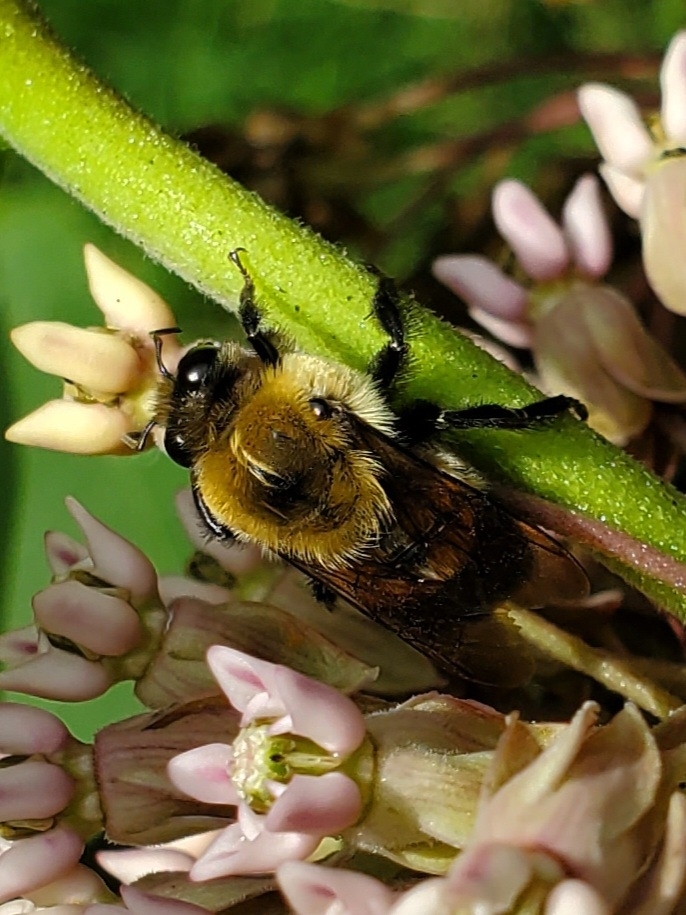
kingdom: Animalia
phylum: Arthropoda
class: Insecta
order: Hymenoptera
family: Apidae
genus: Bombus
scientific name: Bombus griseocollis
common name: Brown-belted bumble bee
